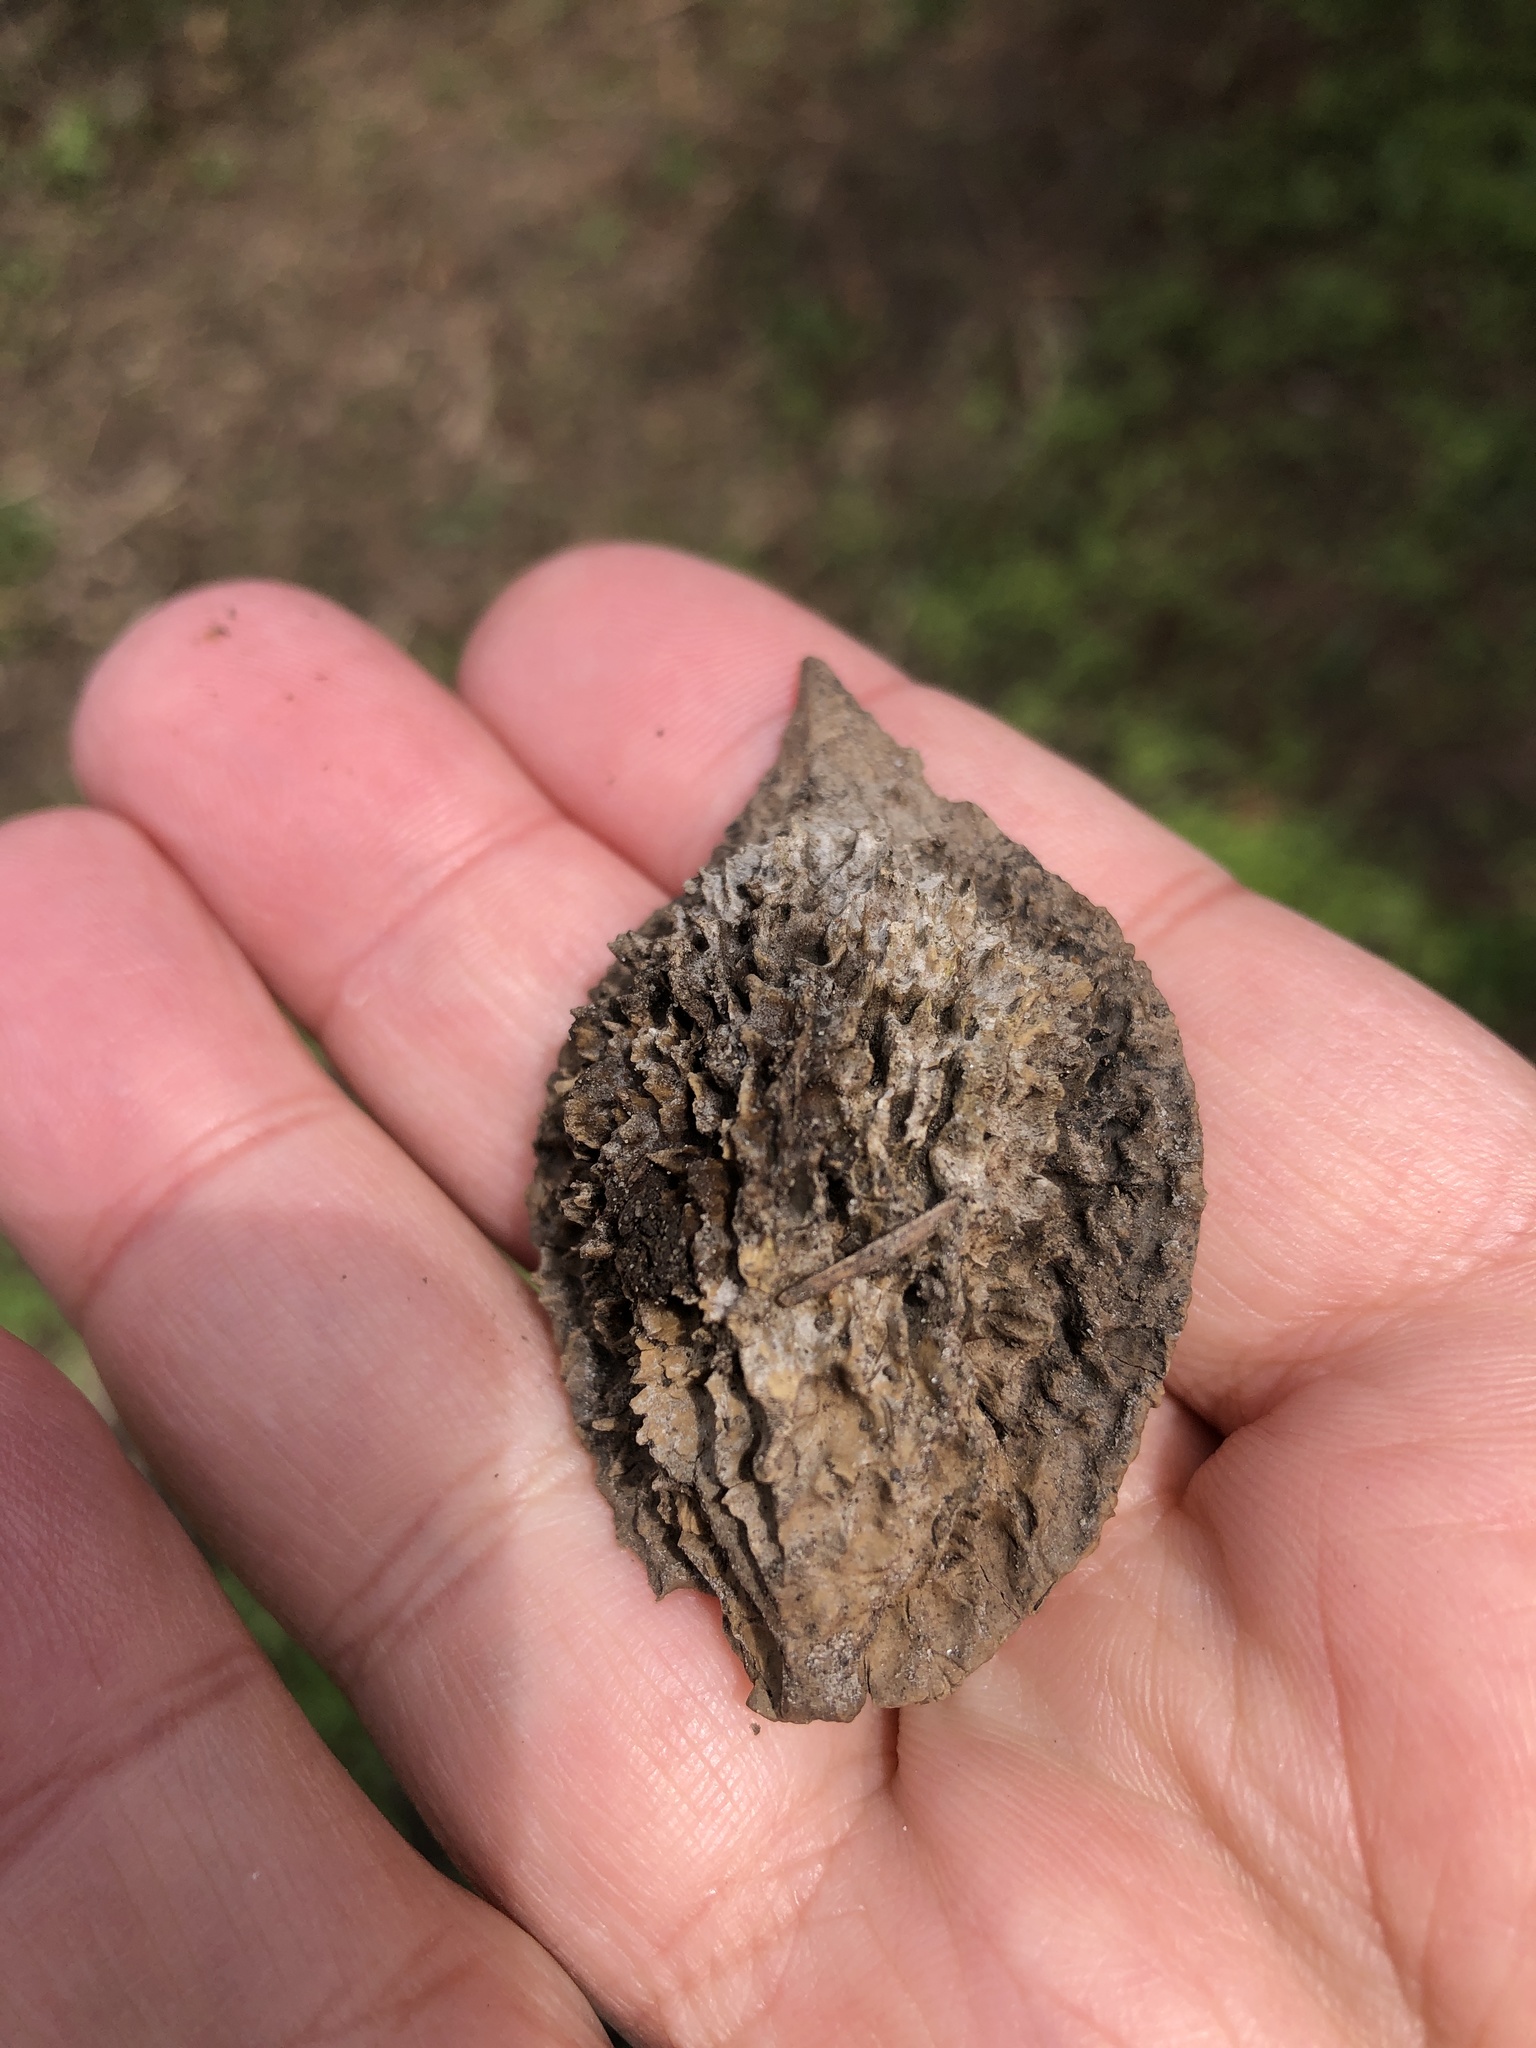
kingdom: Plantae
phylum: Tracheophyta
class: Magnoliopsida
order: Fagales
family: Juglandaceae
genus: Juglans
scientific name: Juglans cinerea
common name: Butternut
